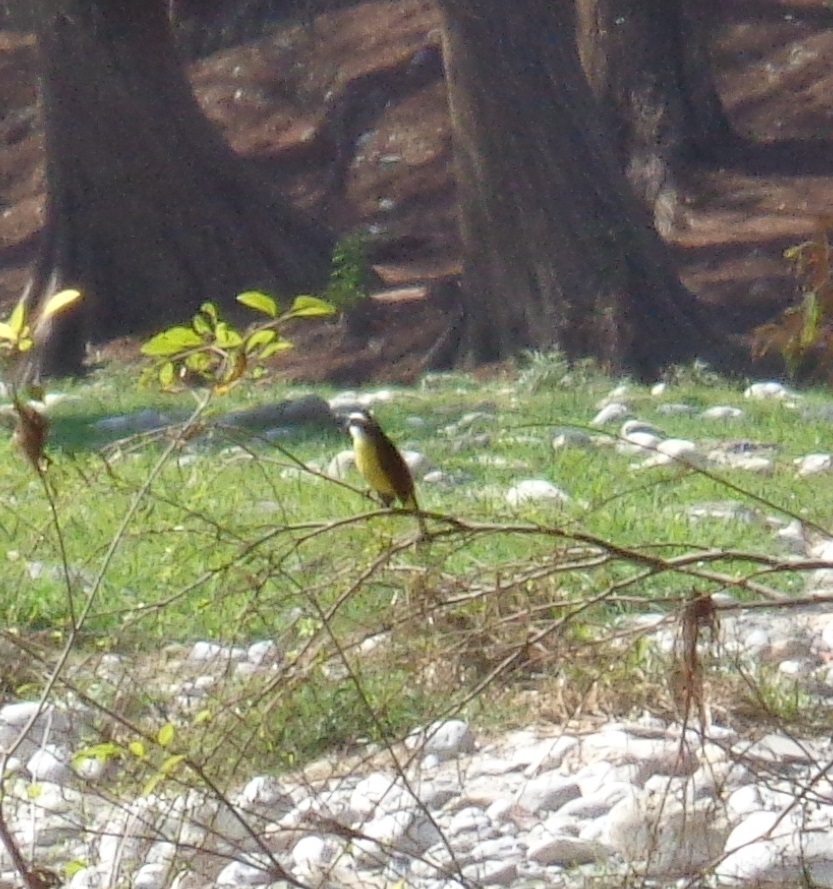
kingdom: Animalia
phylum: Chordata
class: Aves
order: Passeriformes
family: Tyrannidae
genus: Pitangus
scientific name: Pitangus sulphuratus
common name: Great kiskadee
